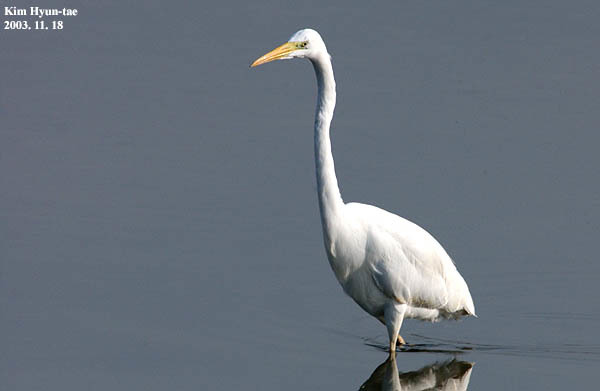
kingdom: Animalia
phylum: Chordata
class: Aves
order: Pelecaniformes
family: Ardeidae
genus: Ardea
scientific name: Ardea alba
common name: Great egret
